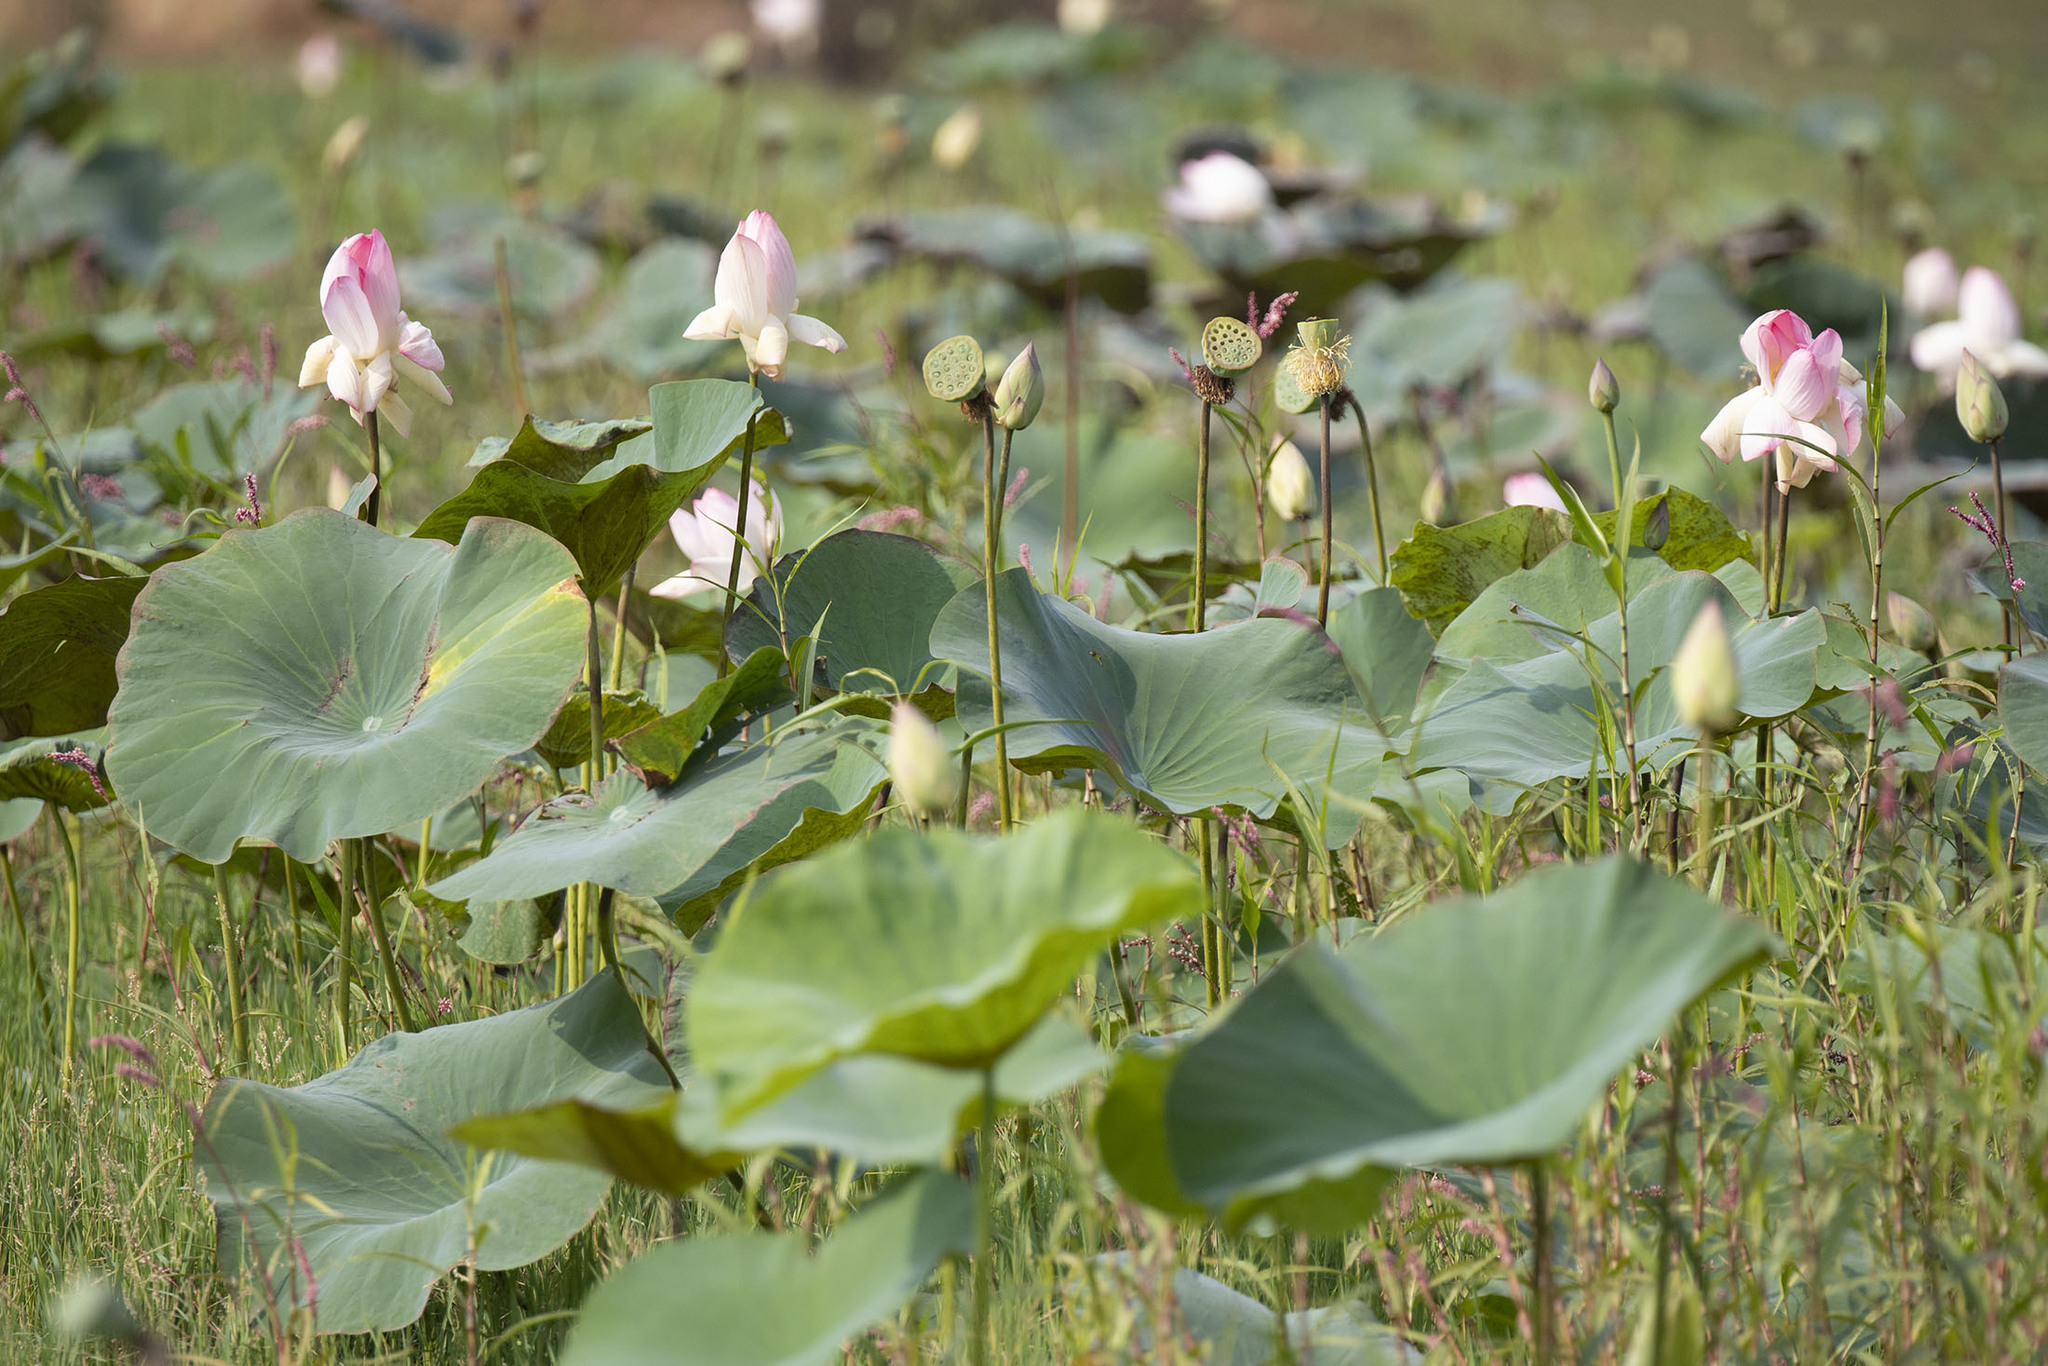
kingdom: Plantae
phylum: Tracheophyta
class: Magnoliopsida
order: Proteales
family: Nelumbonaceae
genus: Nelumbo
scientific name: Nelumbo nucifera
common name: Sacred lotus
